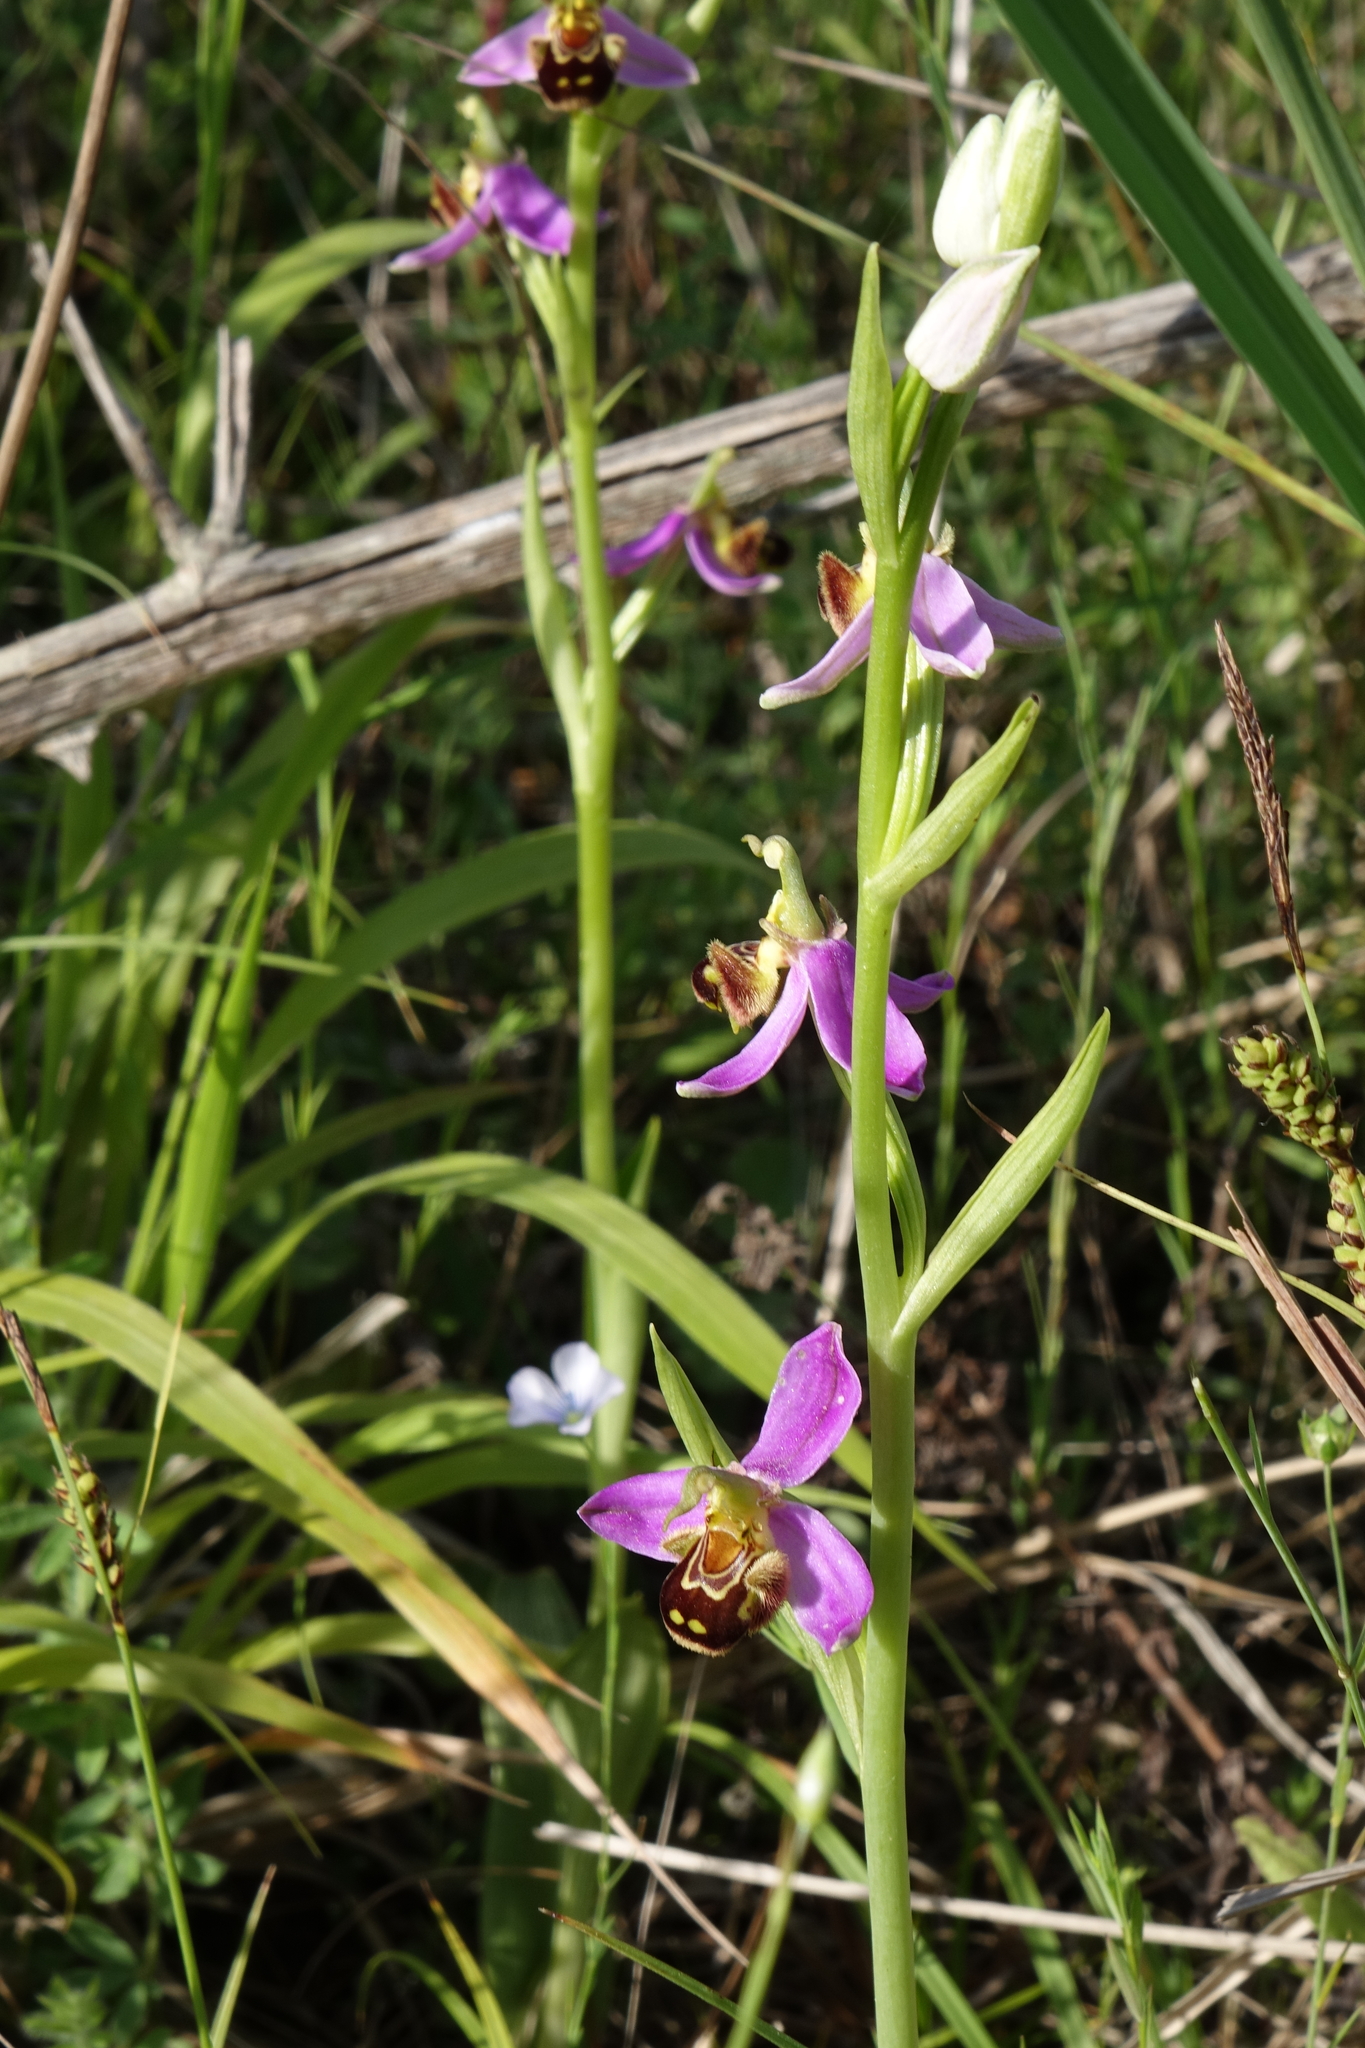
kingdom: Plantae
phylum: Tracheophyta
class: Liliopsida
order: Asparagales
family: Orchidaceae
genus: Ophrys
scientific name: Ophrys apifera
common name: Bee orchid
